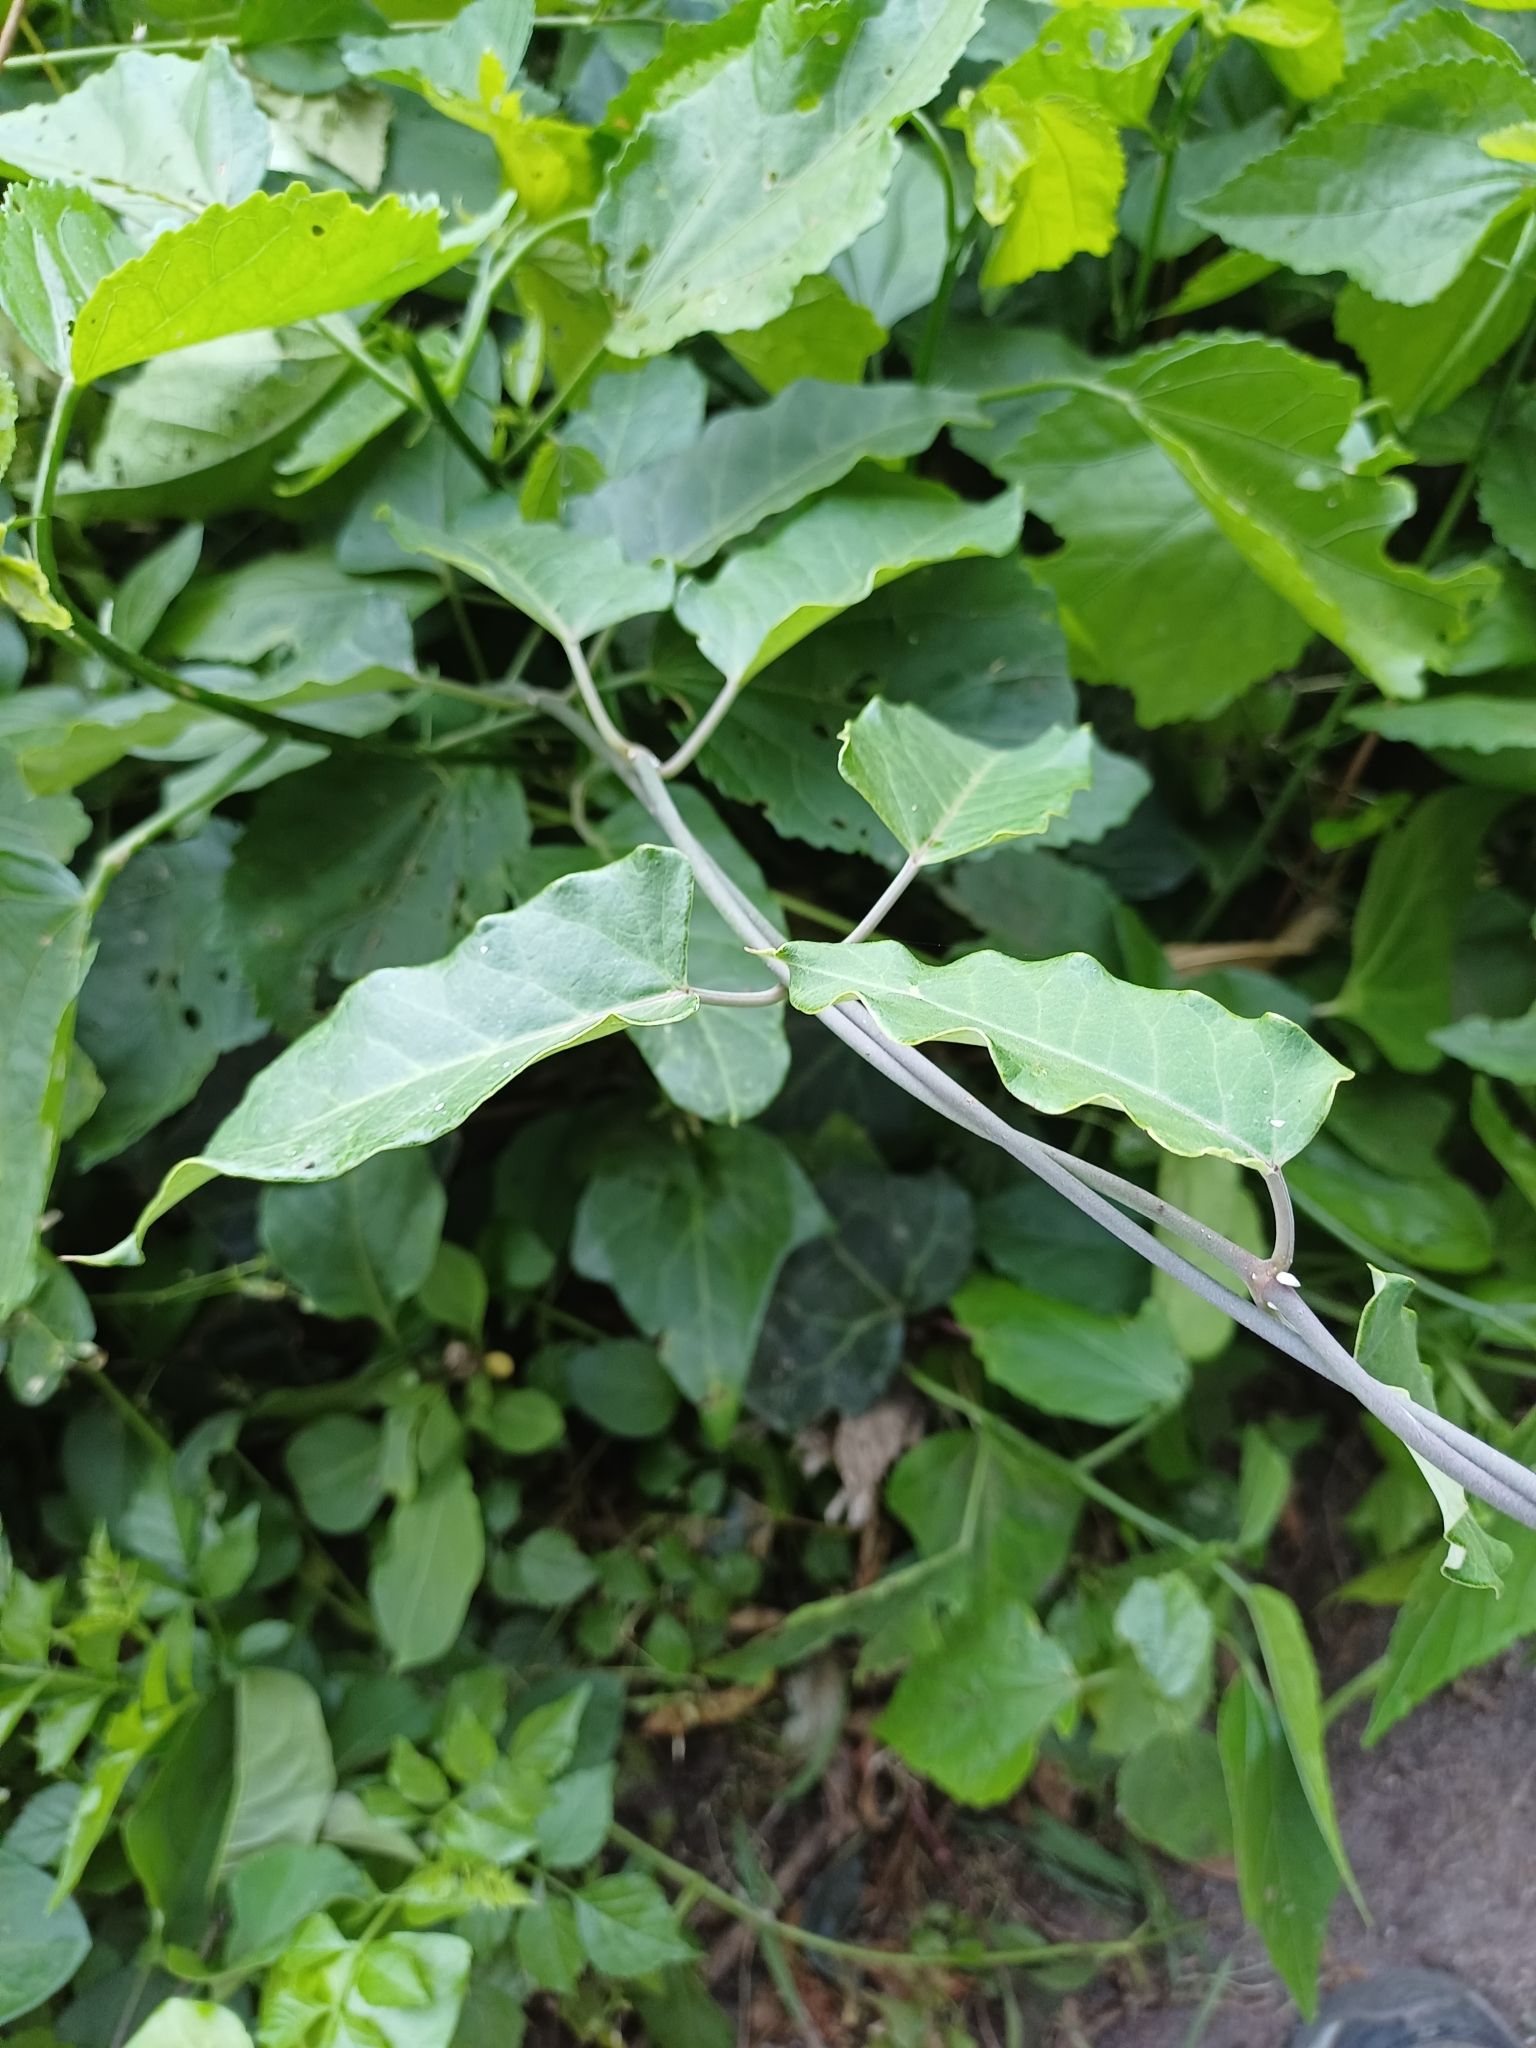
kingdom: Plantae
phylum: Tracheophyta
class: Magnoliopsida
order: Gentianales
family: Apocynaceae
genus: Araujia
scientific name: Araujia sericifera
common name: White bladderflower
